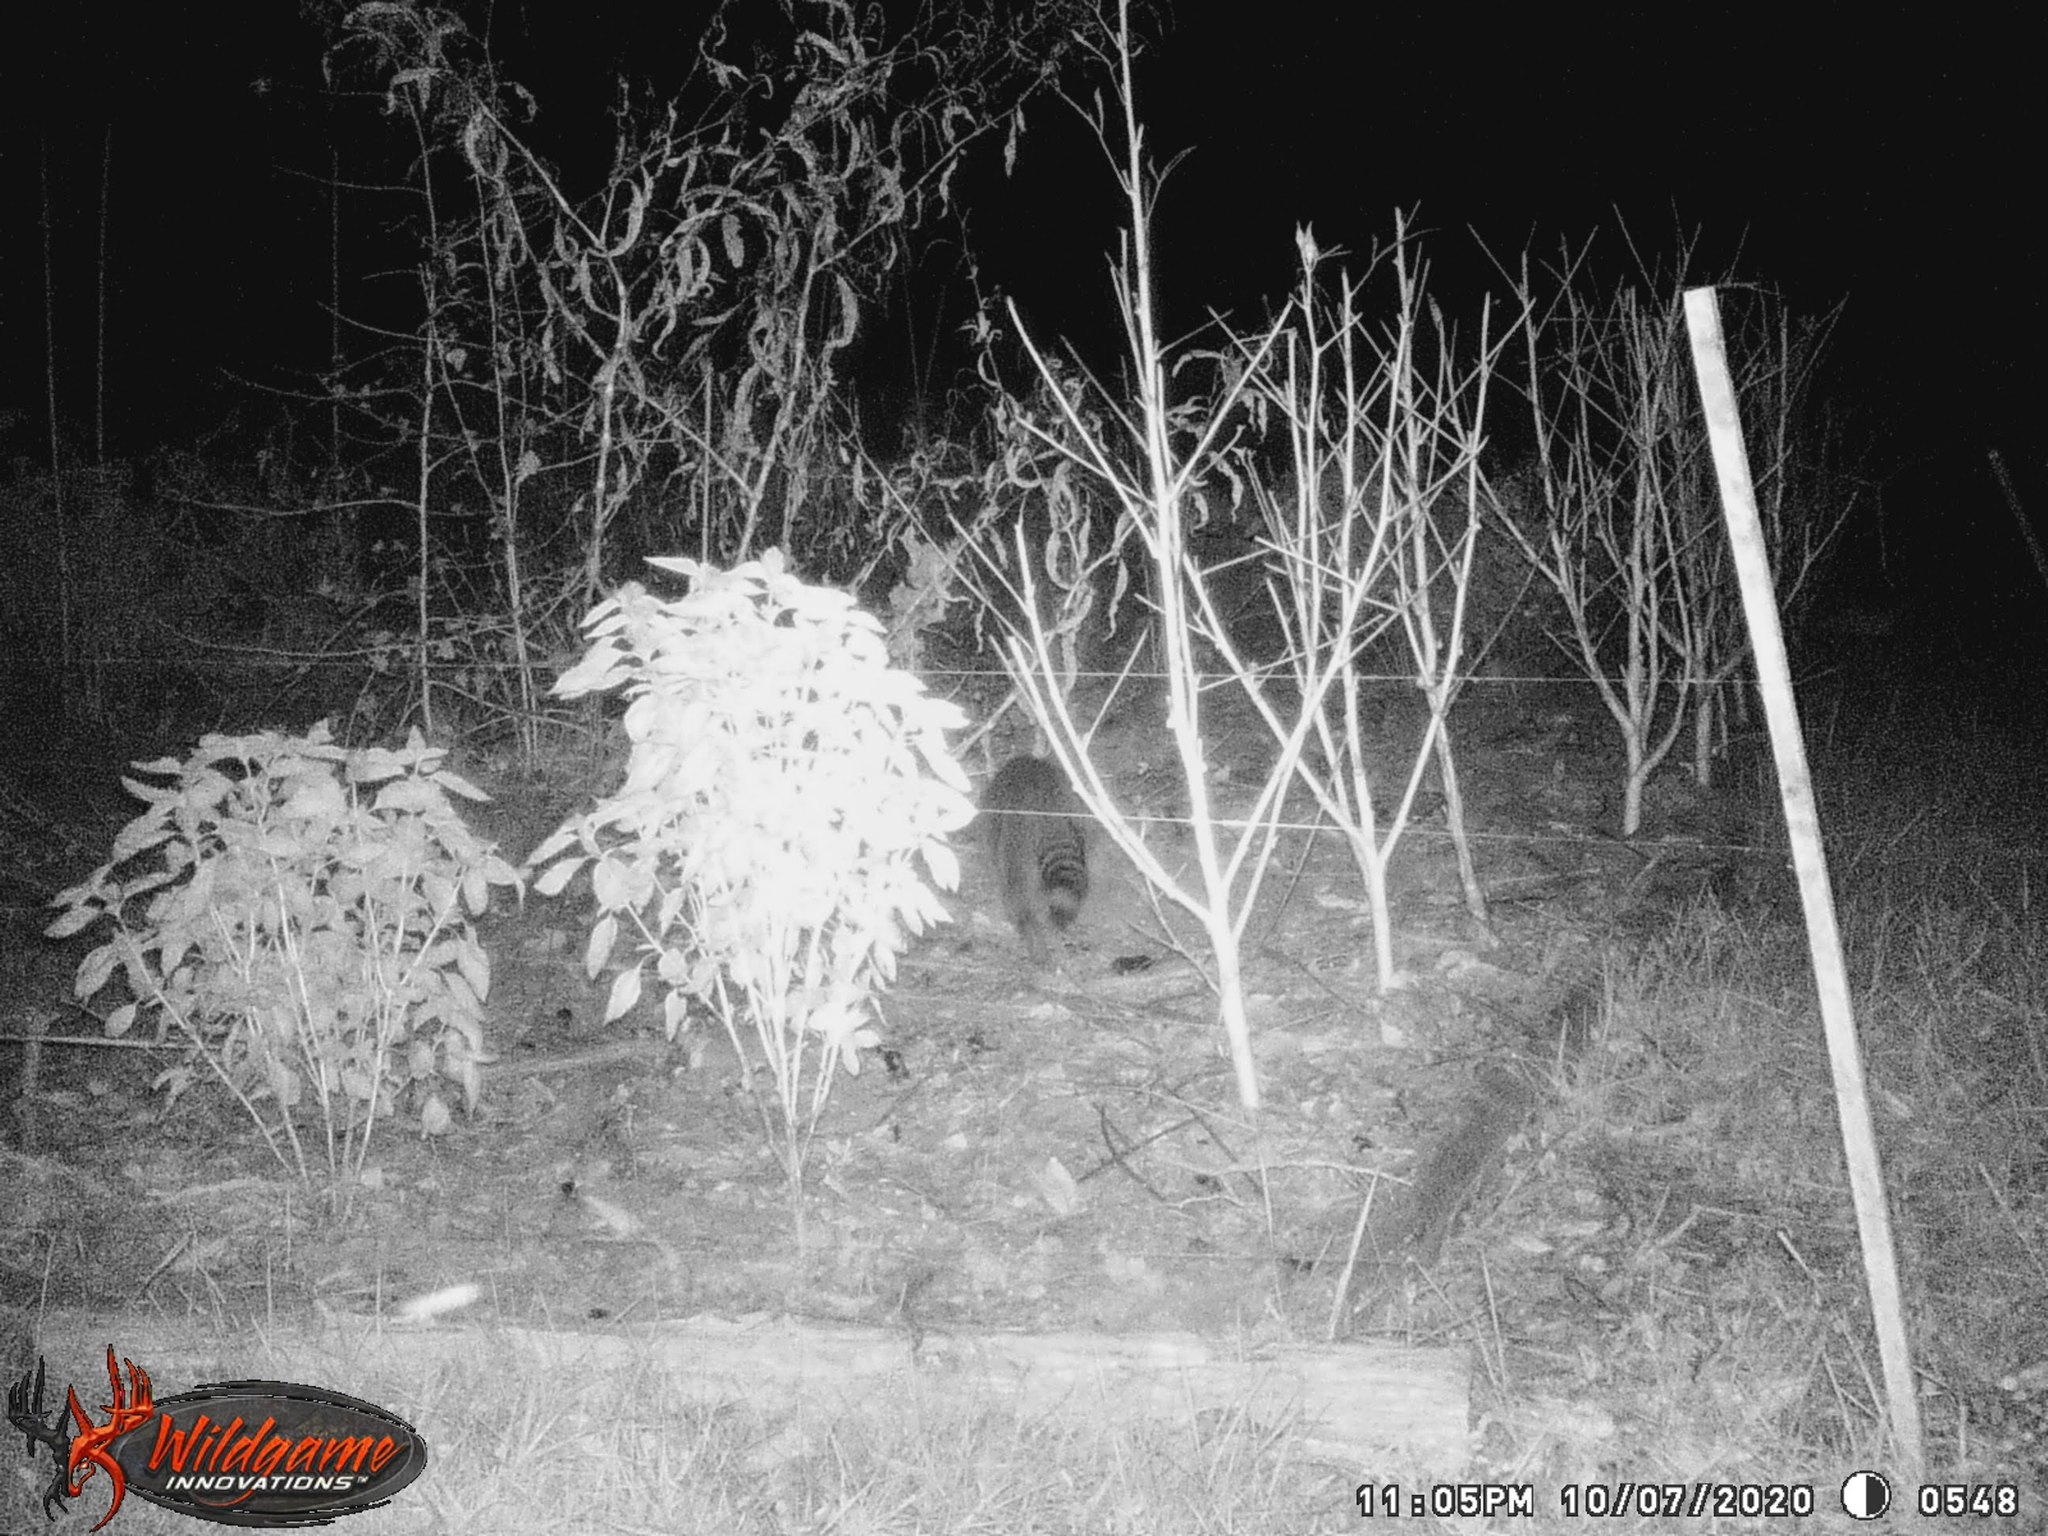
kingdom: Animalia
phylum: Chordata
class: Mammalia
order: Carnivora
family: Procyonidae
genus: Procyon
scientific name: Procyon lotor
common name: Raccoon
